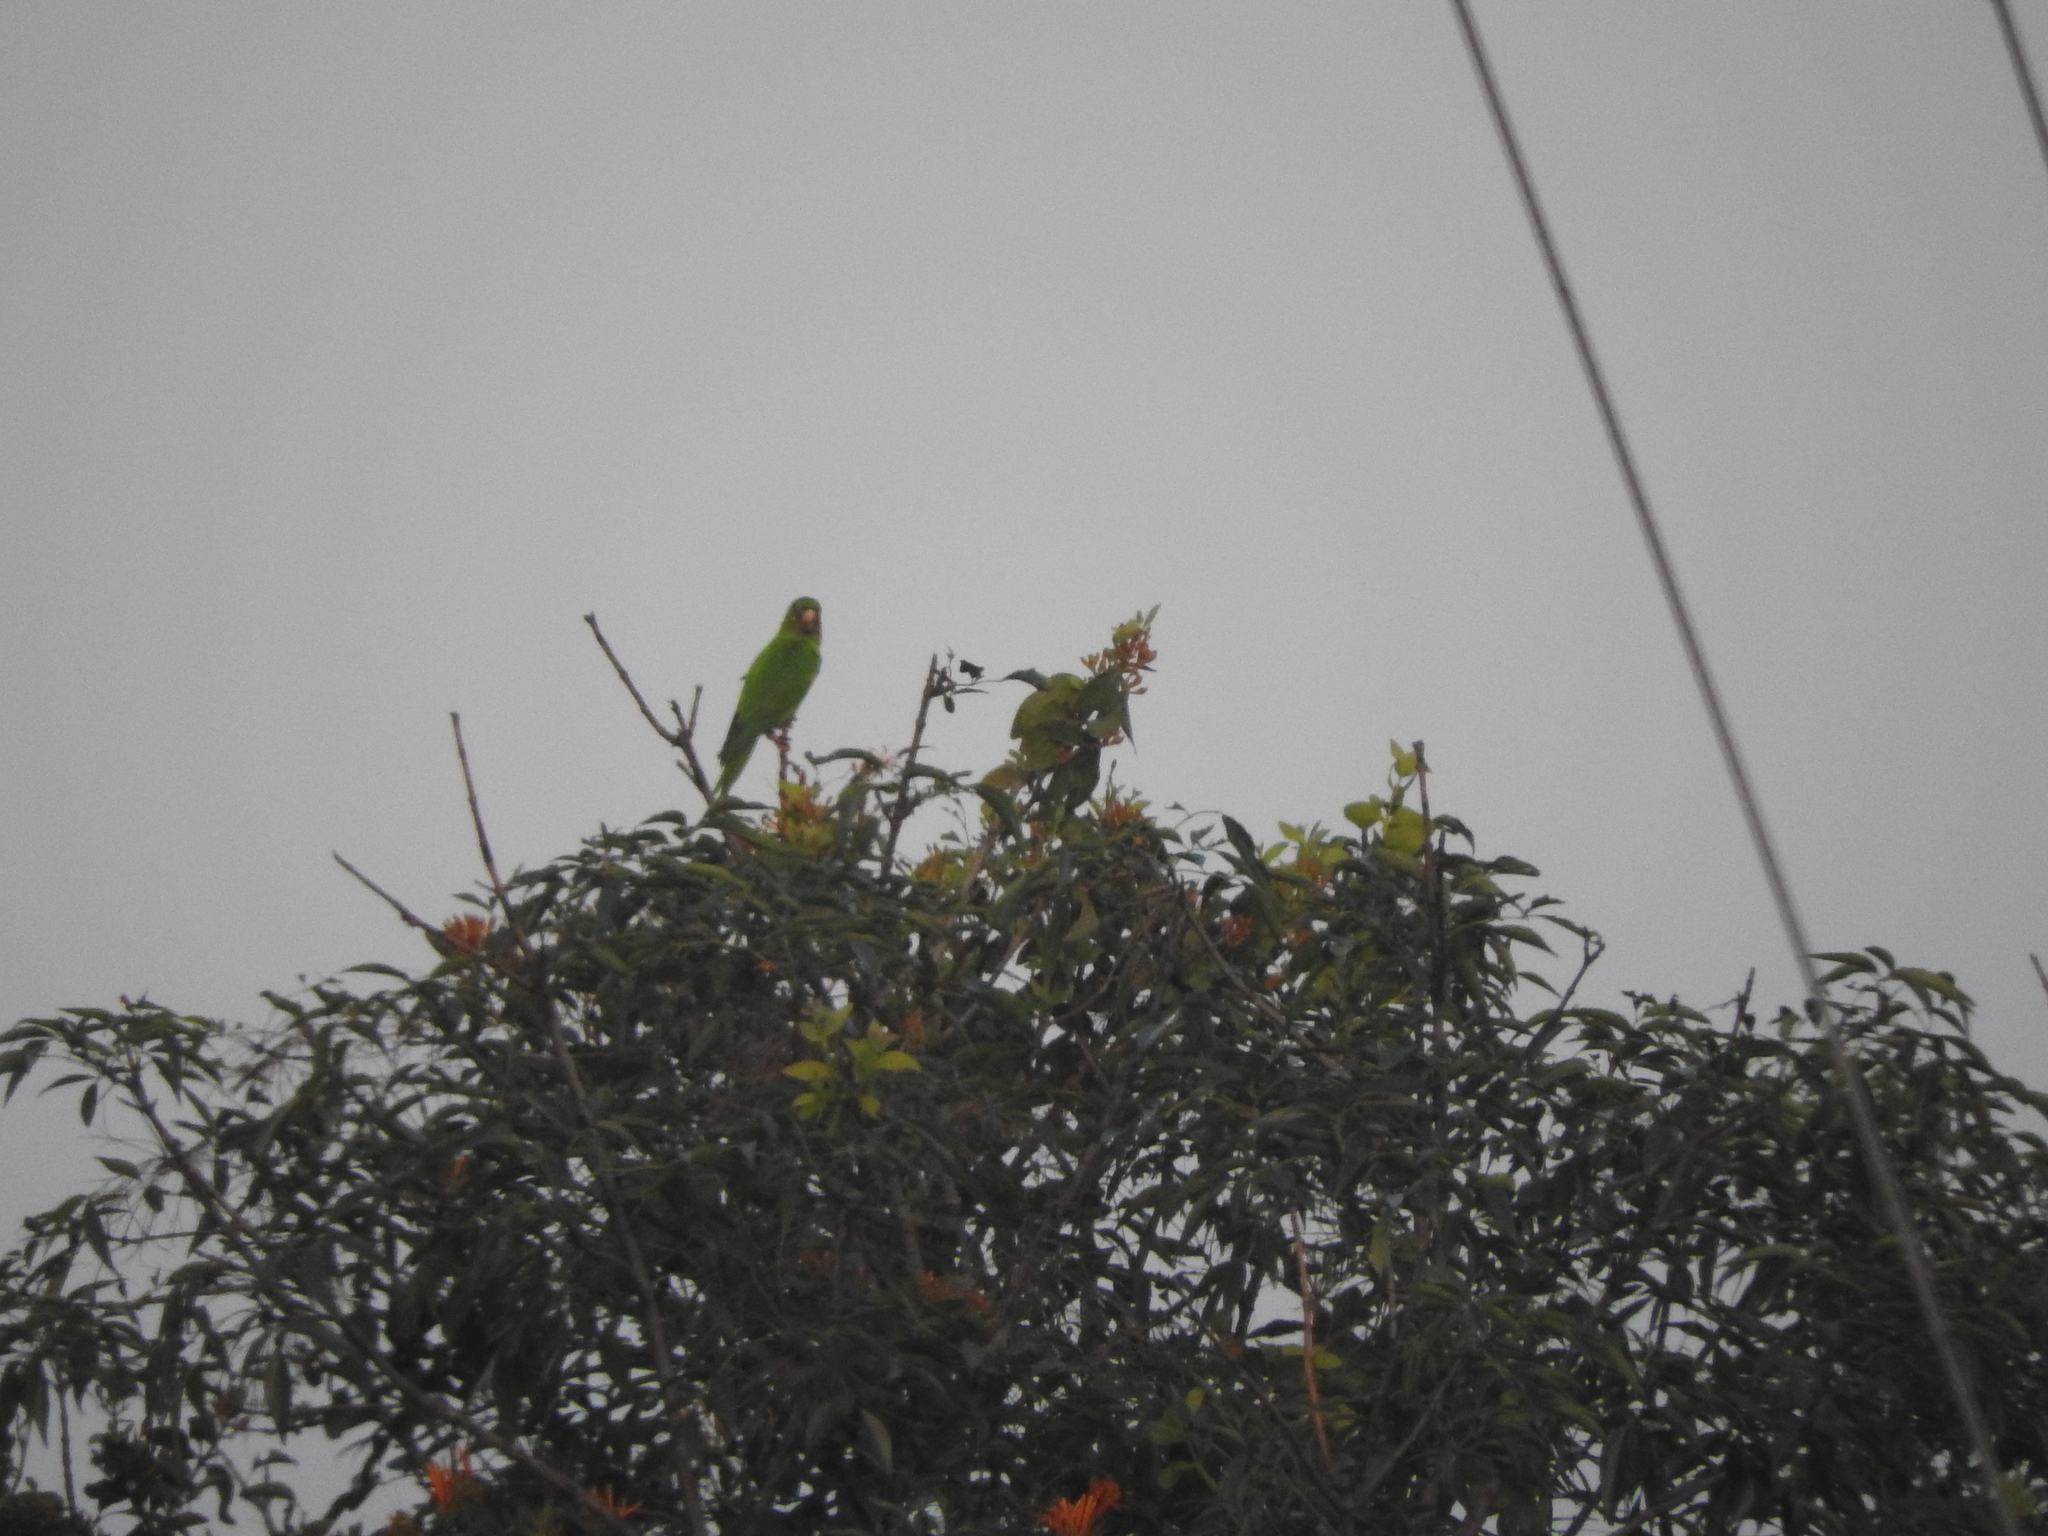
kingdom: Animalia
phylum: Chordata
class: Aves
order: Psittaciformes
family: Psittacidae
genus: Aratinga
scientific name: Aratinga holochlora
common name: Green parakeet
